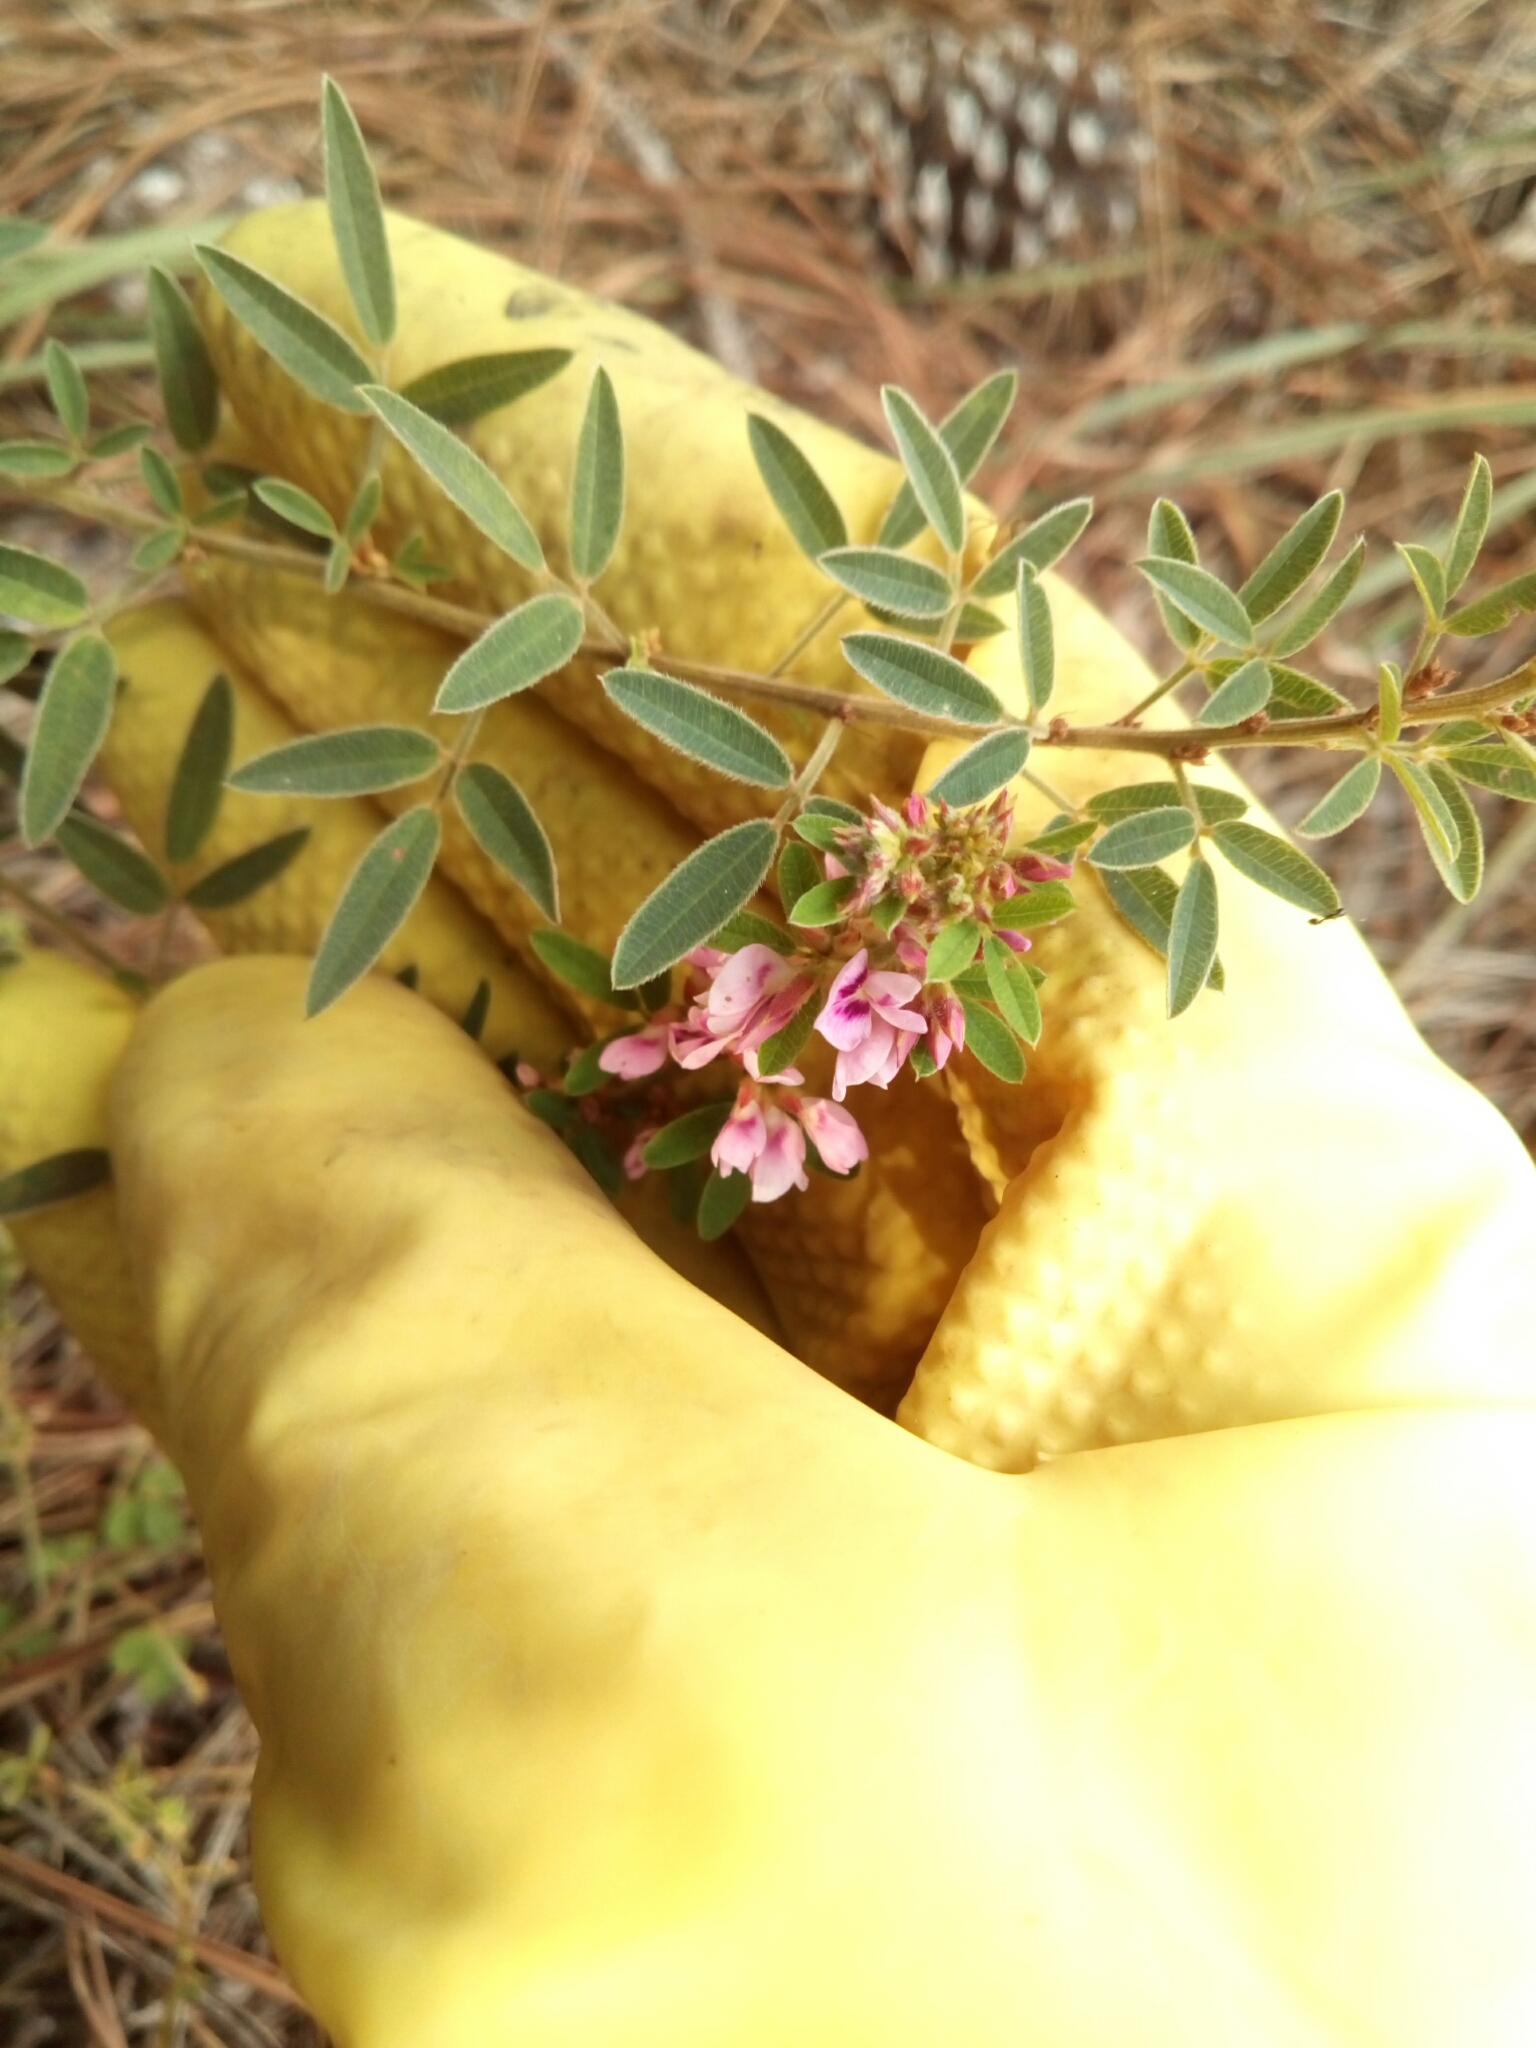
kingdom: Plantae
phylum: Tracheophyta
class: Magnoliopsida
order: Fabales
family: Fabaceae
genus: Lespedeza
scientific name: Lespedeza virginica
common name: Slender bush-clover
